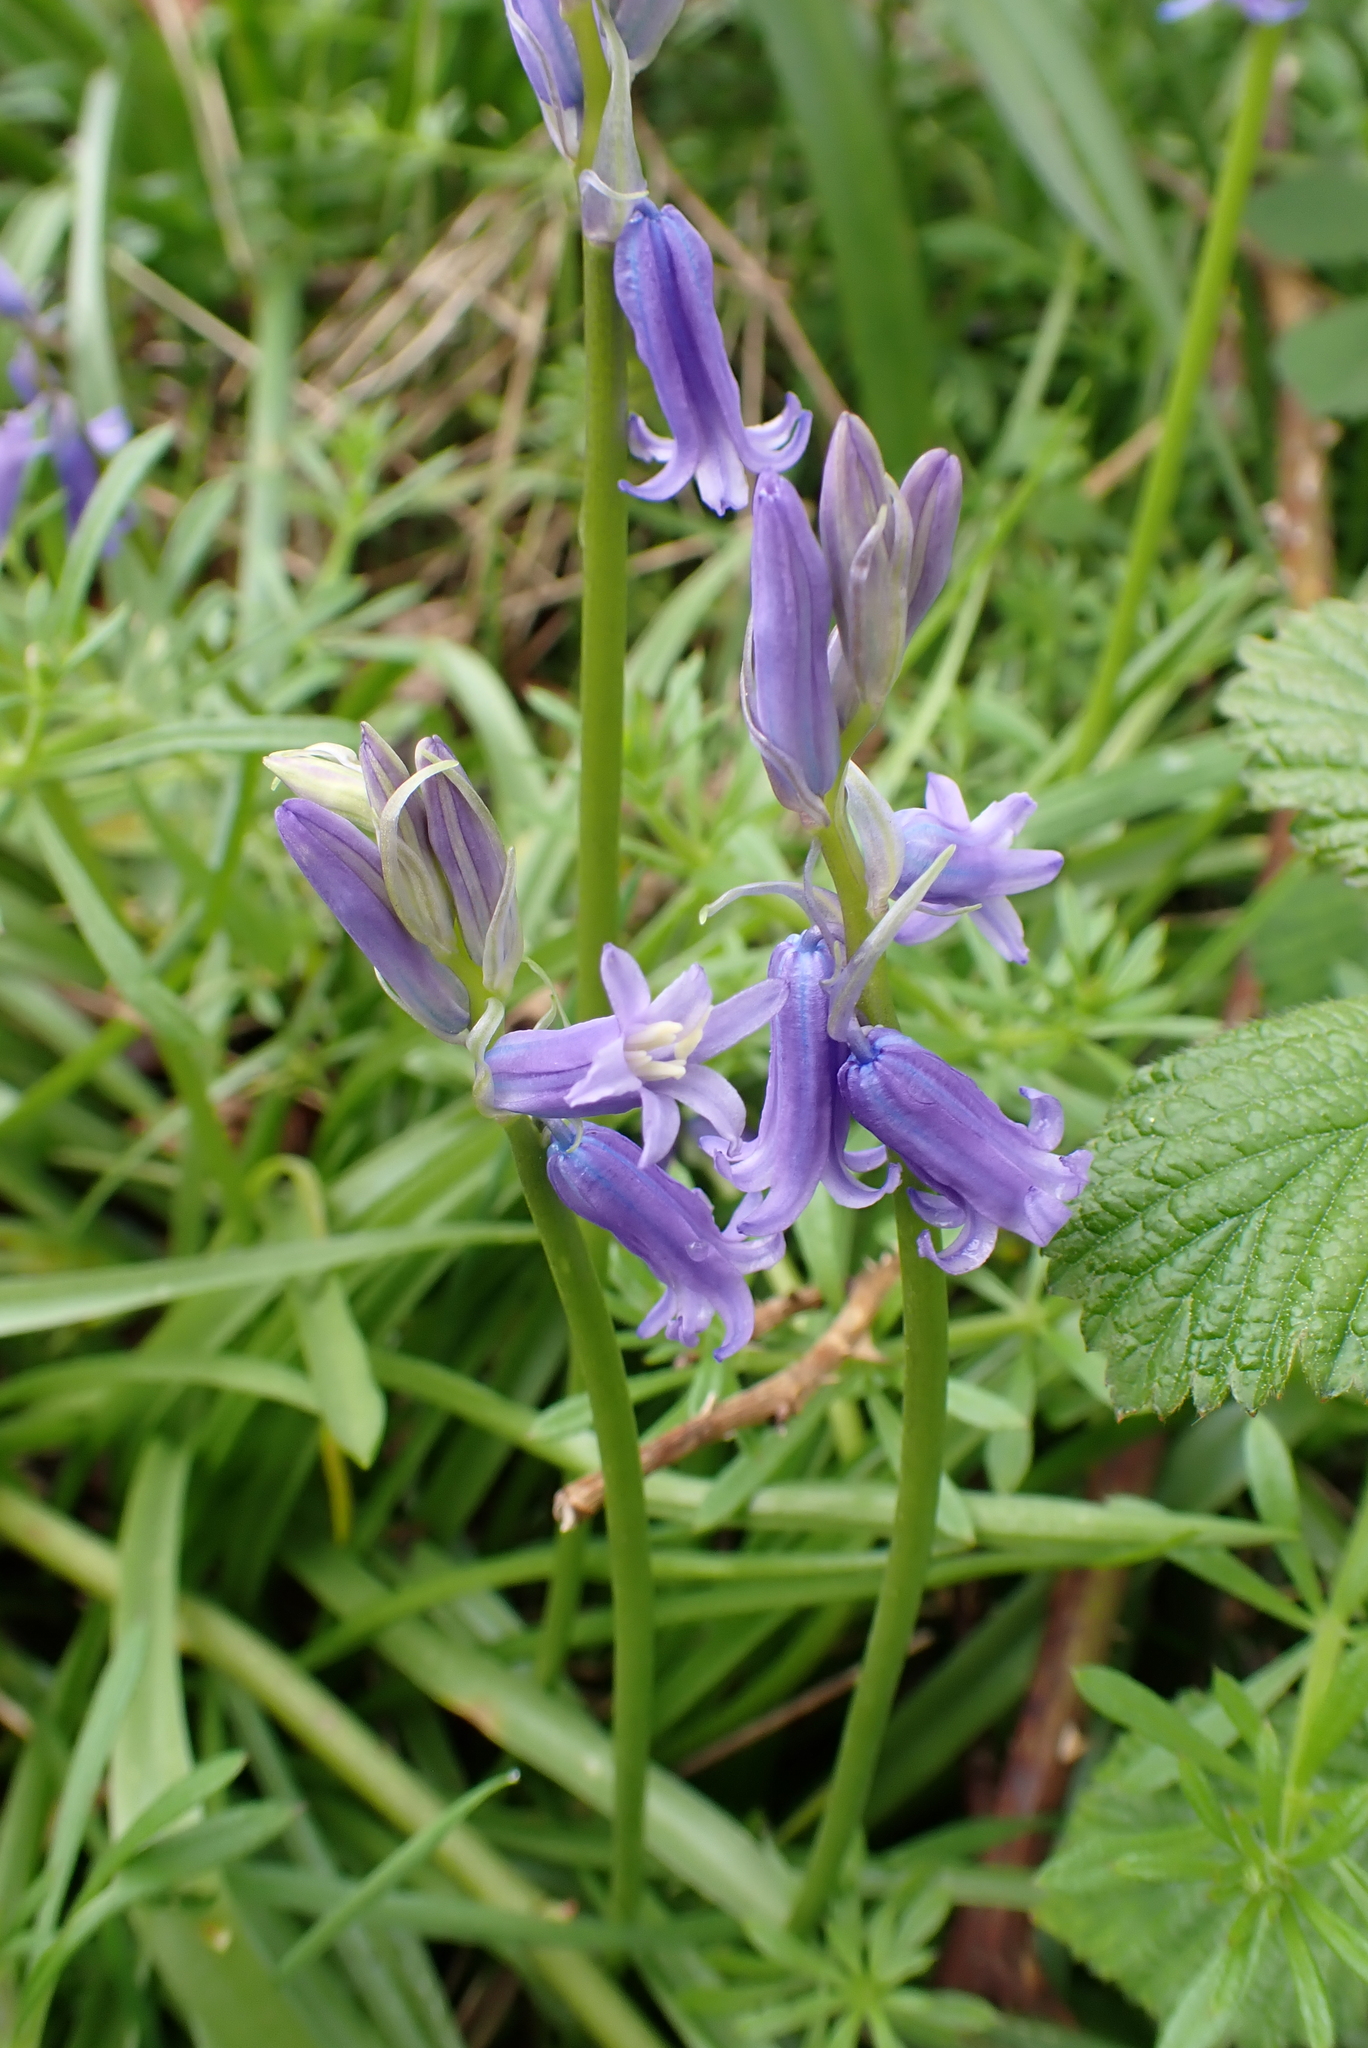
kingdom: Plantae
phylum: Tracheophyta
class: Liliopsida
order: Asparagales
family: Asparagaceae
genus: Hyacinthoides
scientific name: Hyacinthoides non-scripta
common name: Bluebell
